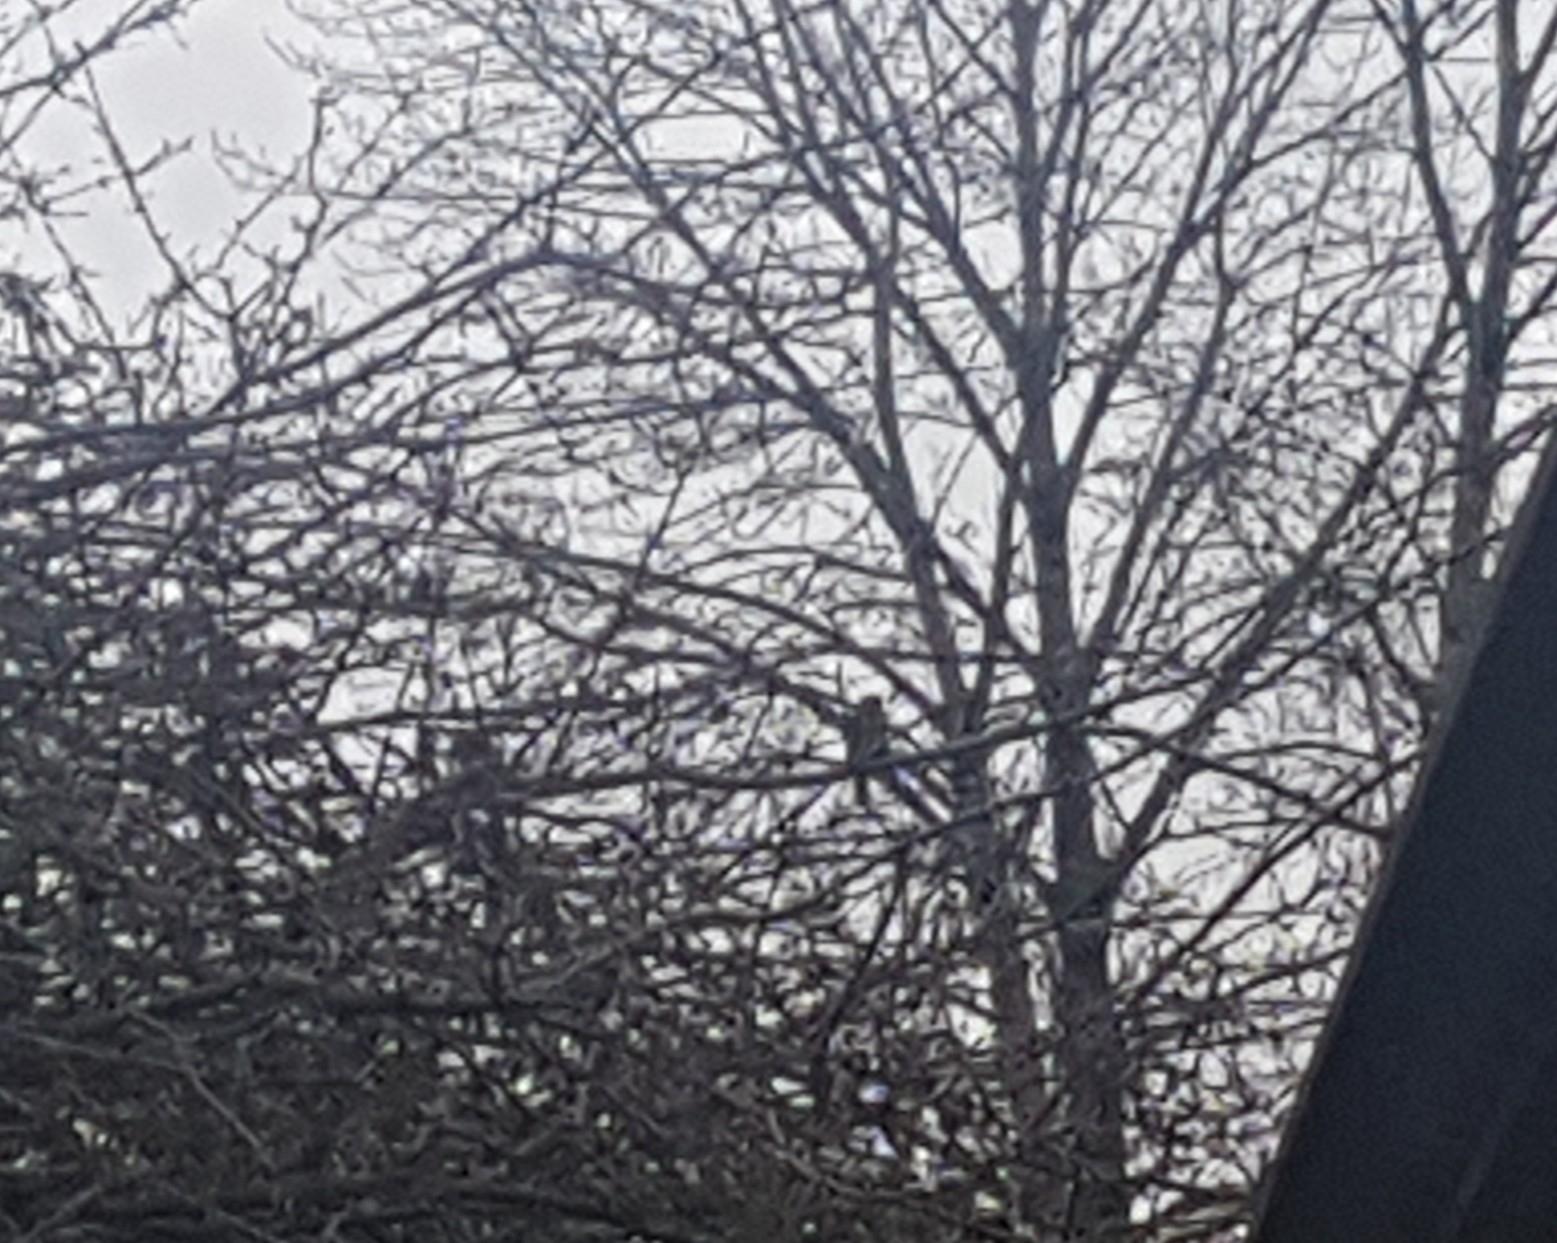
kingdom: Animalia
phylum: Chordata
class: Aves
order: Passeriformes
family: Passerellidae
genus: Melospiza
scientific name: Melospiza melodia
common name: Song sparrow
